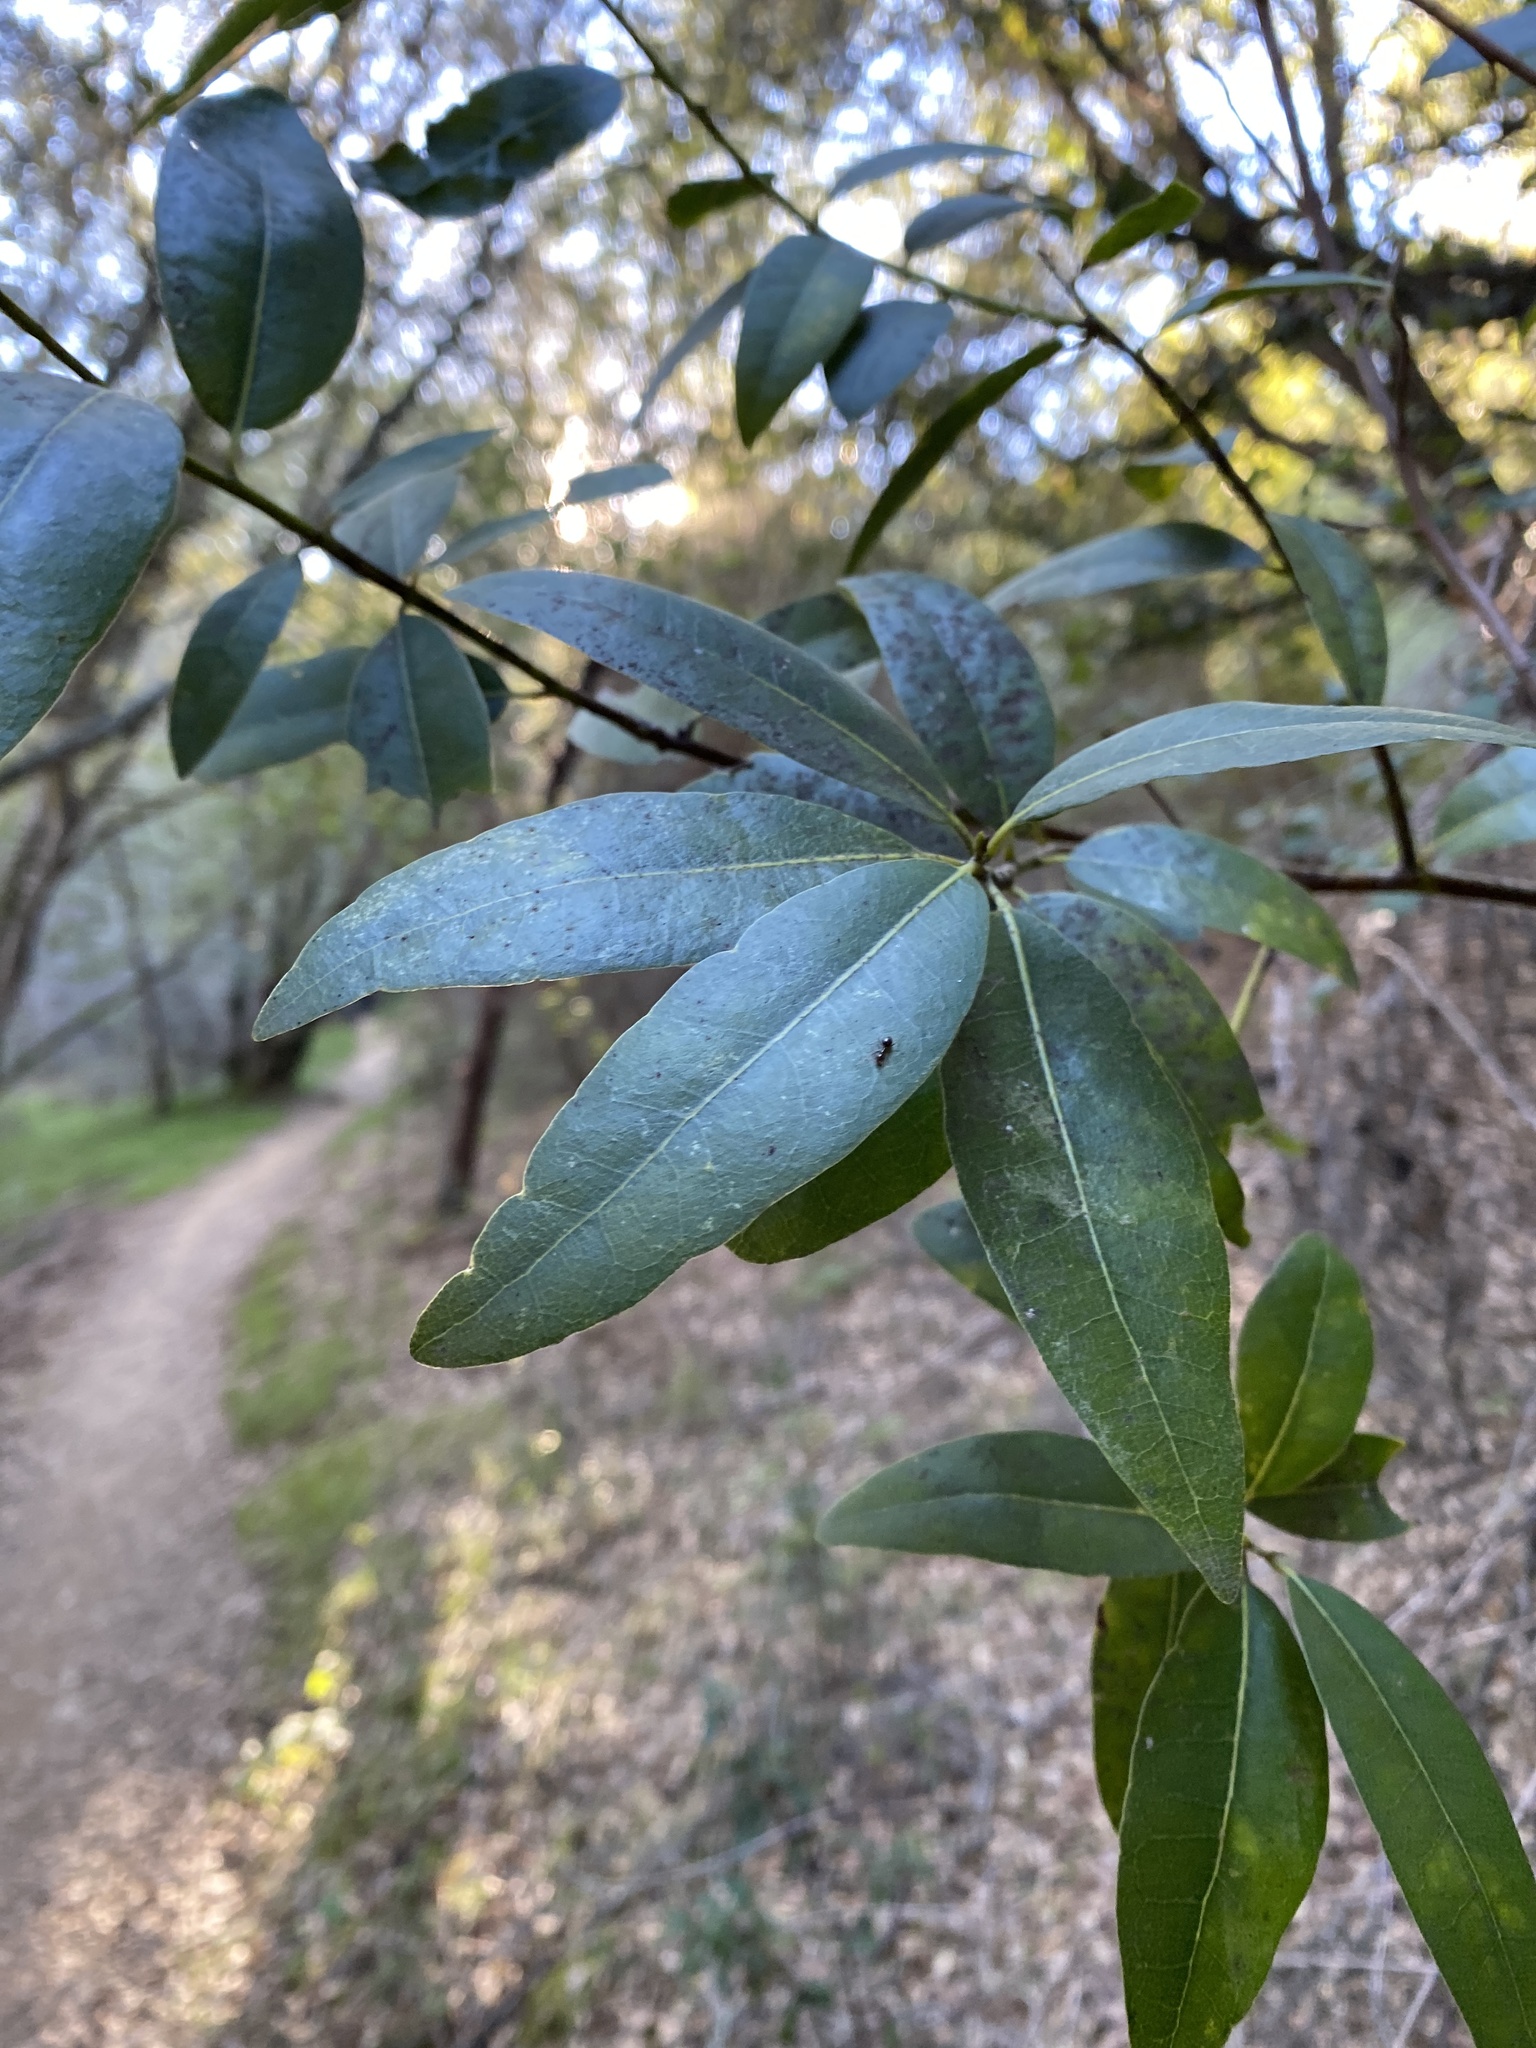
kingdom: Plantae
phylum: Tracheophyta
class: Magnoliopsida
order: Laurales
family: Lauraceae
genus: Umbellularia
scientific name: Umbellularia californica
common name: California bay
